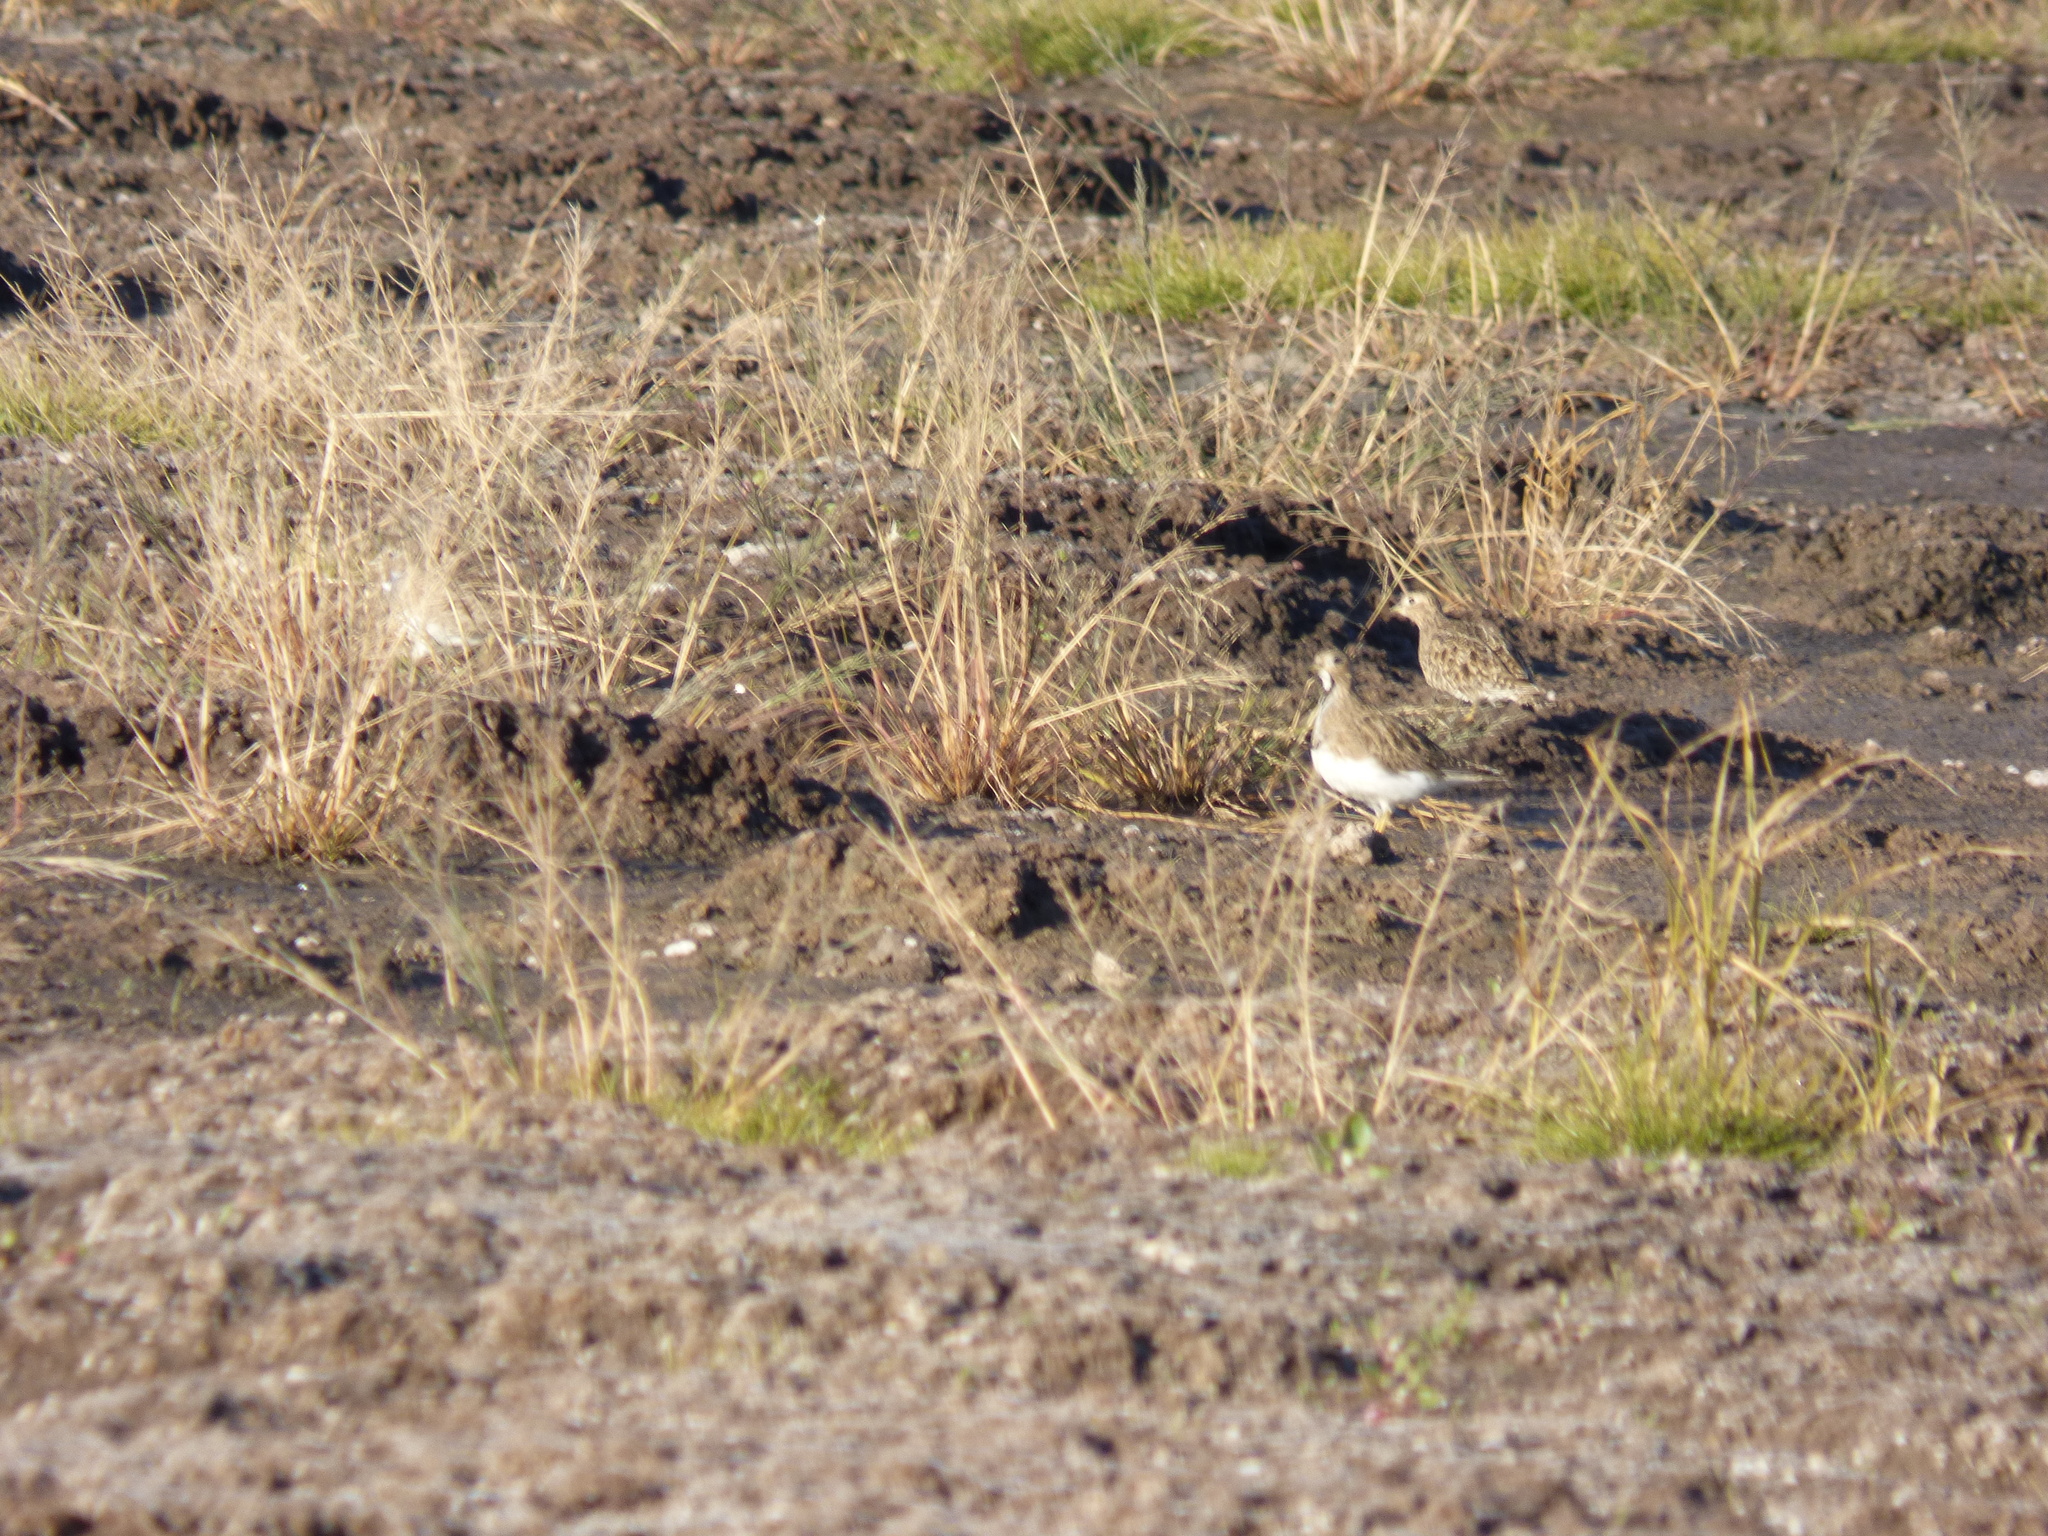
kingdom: Animalia
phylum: Chordata
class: Aves
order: Charadriiformes
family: Thinocoridae
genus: Thinocorus
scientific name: Thinocorus rumicivorus
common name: Least seedsnipe
